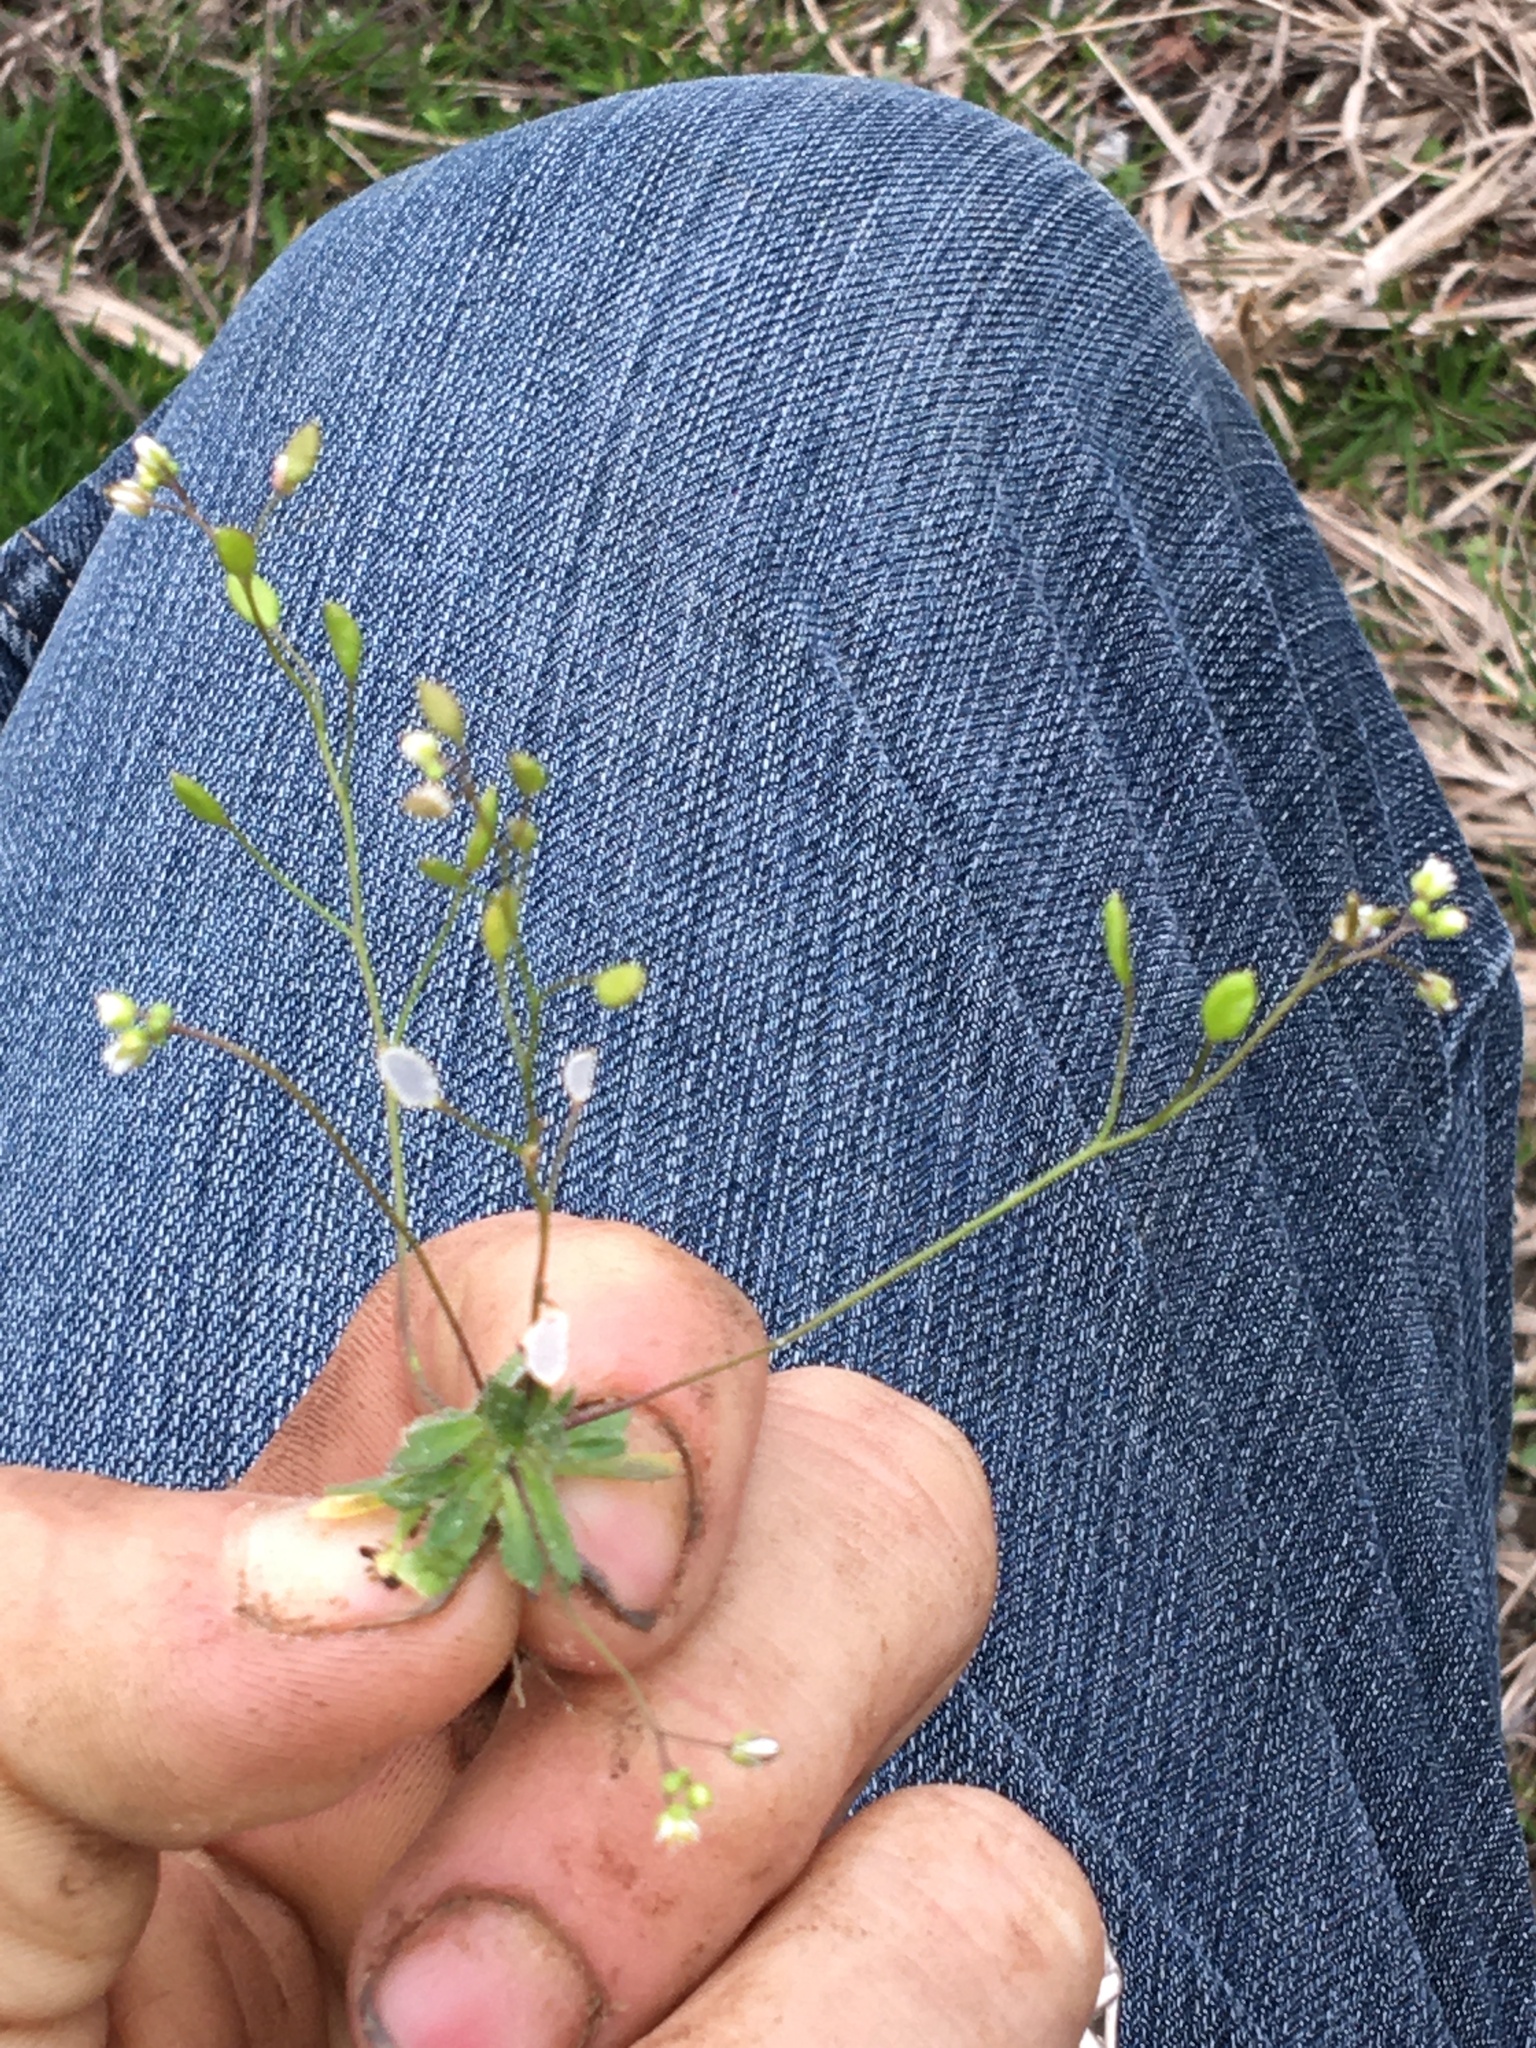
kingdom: Plantae
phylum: Tracheophyta
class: Magnoliopsida
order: Brassicales
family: Brassicaceae
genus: Draba
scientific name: Draba verna
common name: Spring draba
